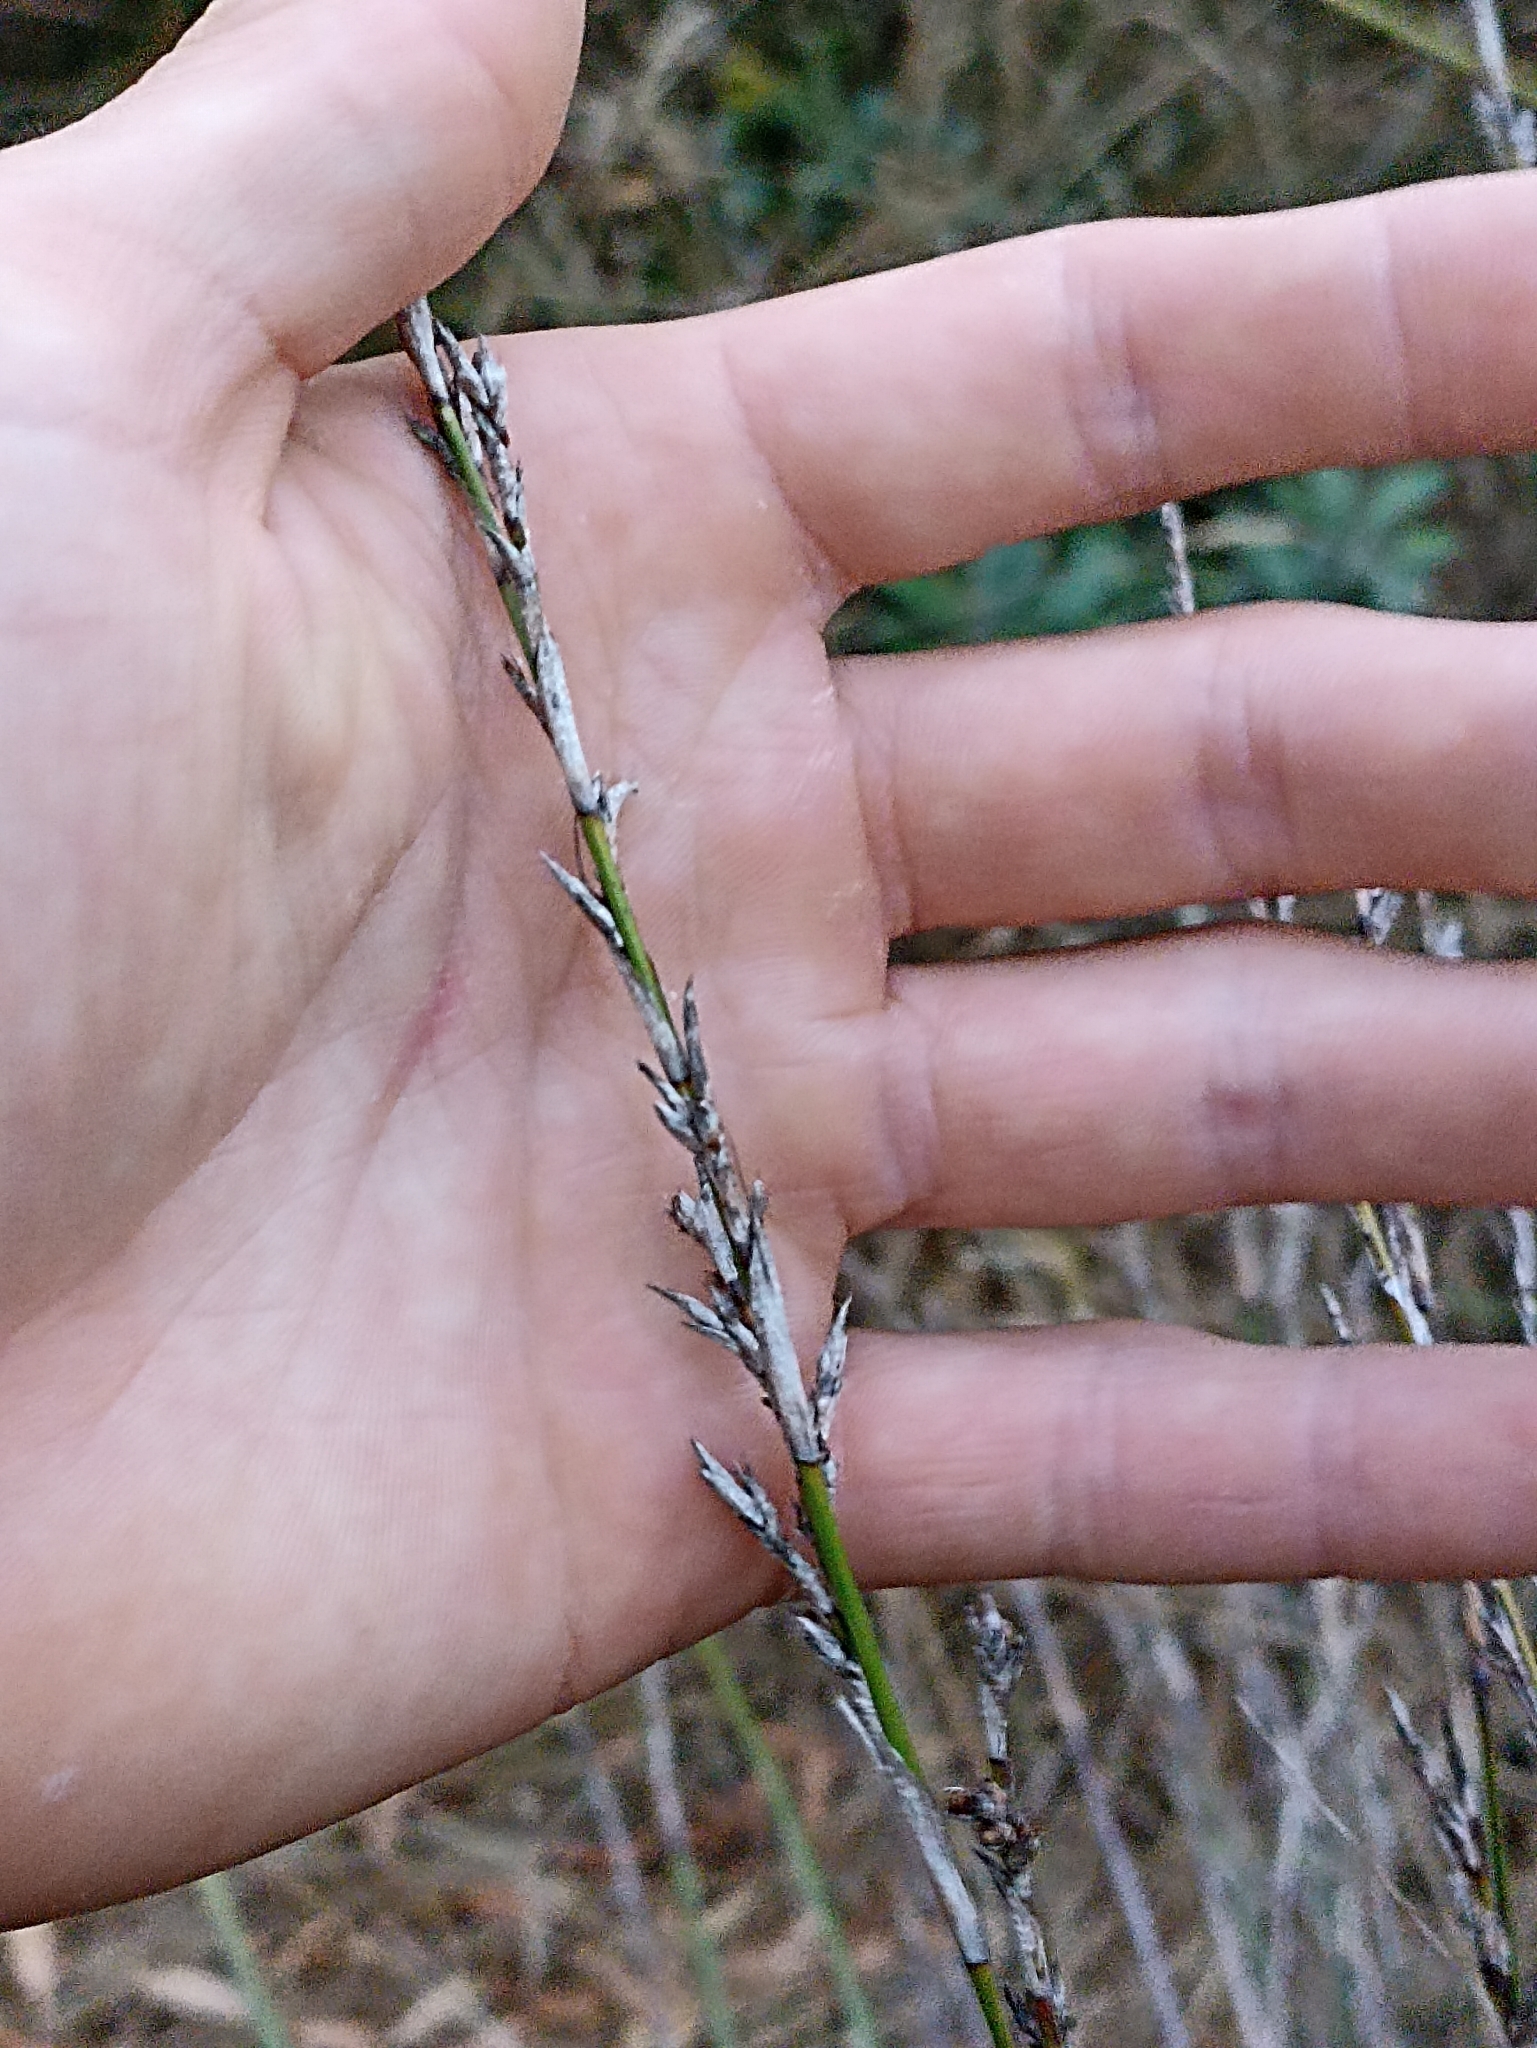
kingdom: Plantae
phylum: Tracheophyta
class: Liliopsida
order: Poales
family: Cyperaceae
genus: Lepidosperma
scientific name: Lepidosperma laterale
